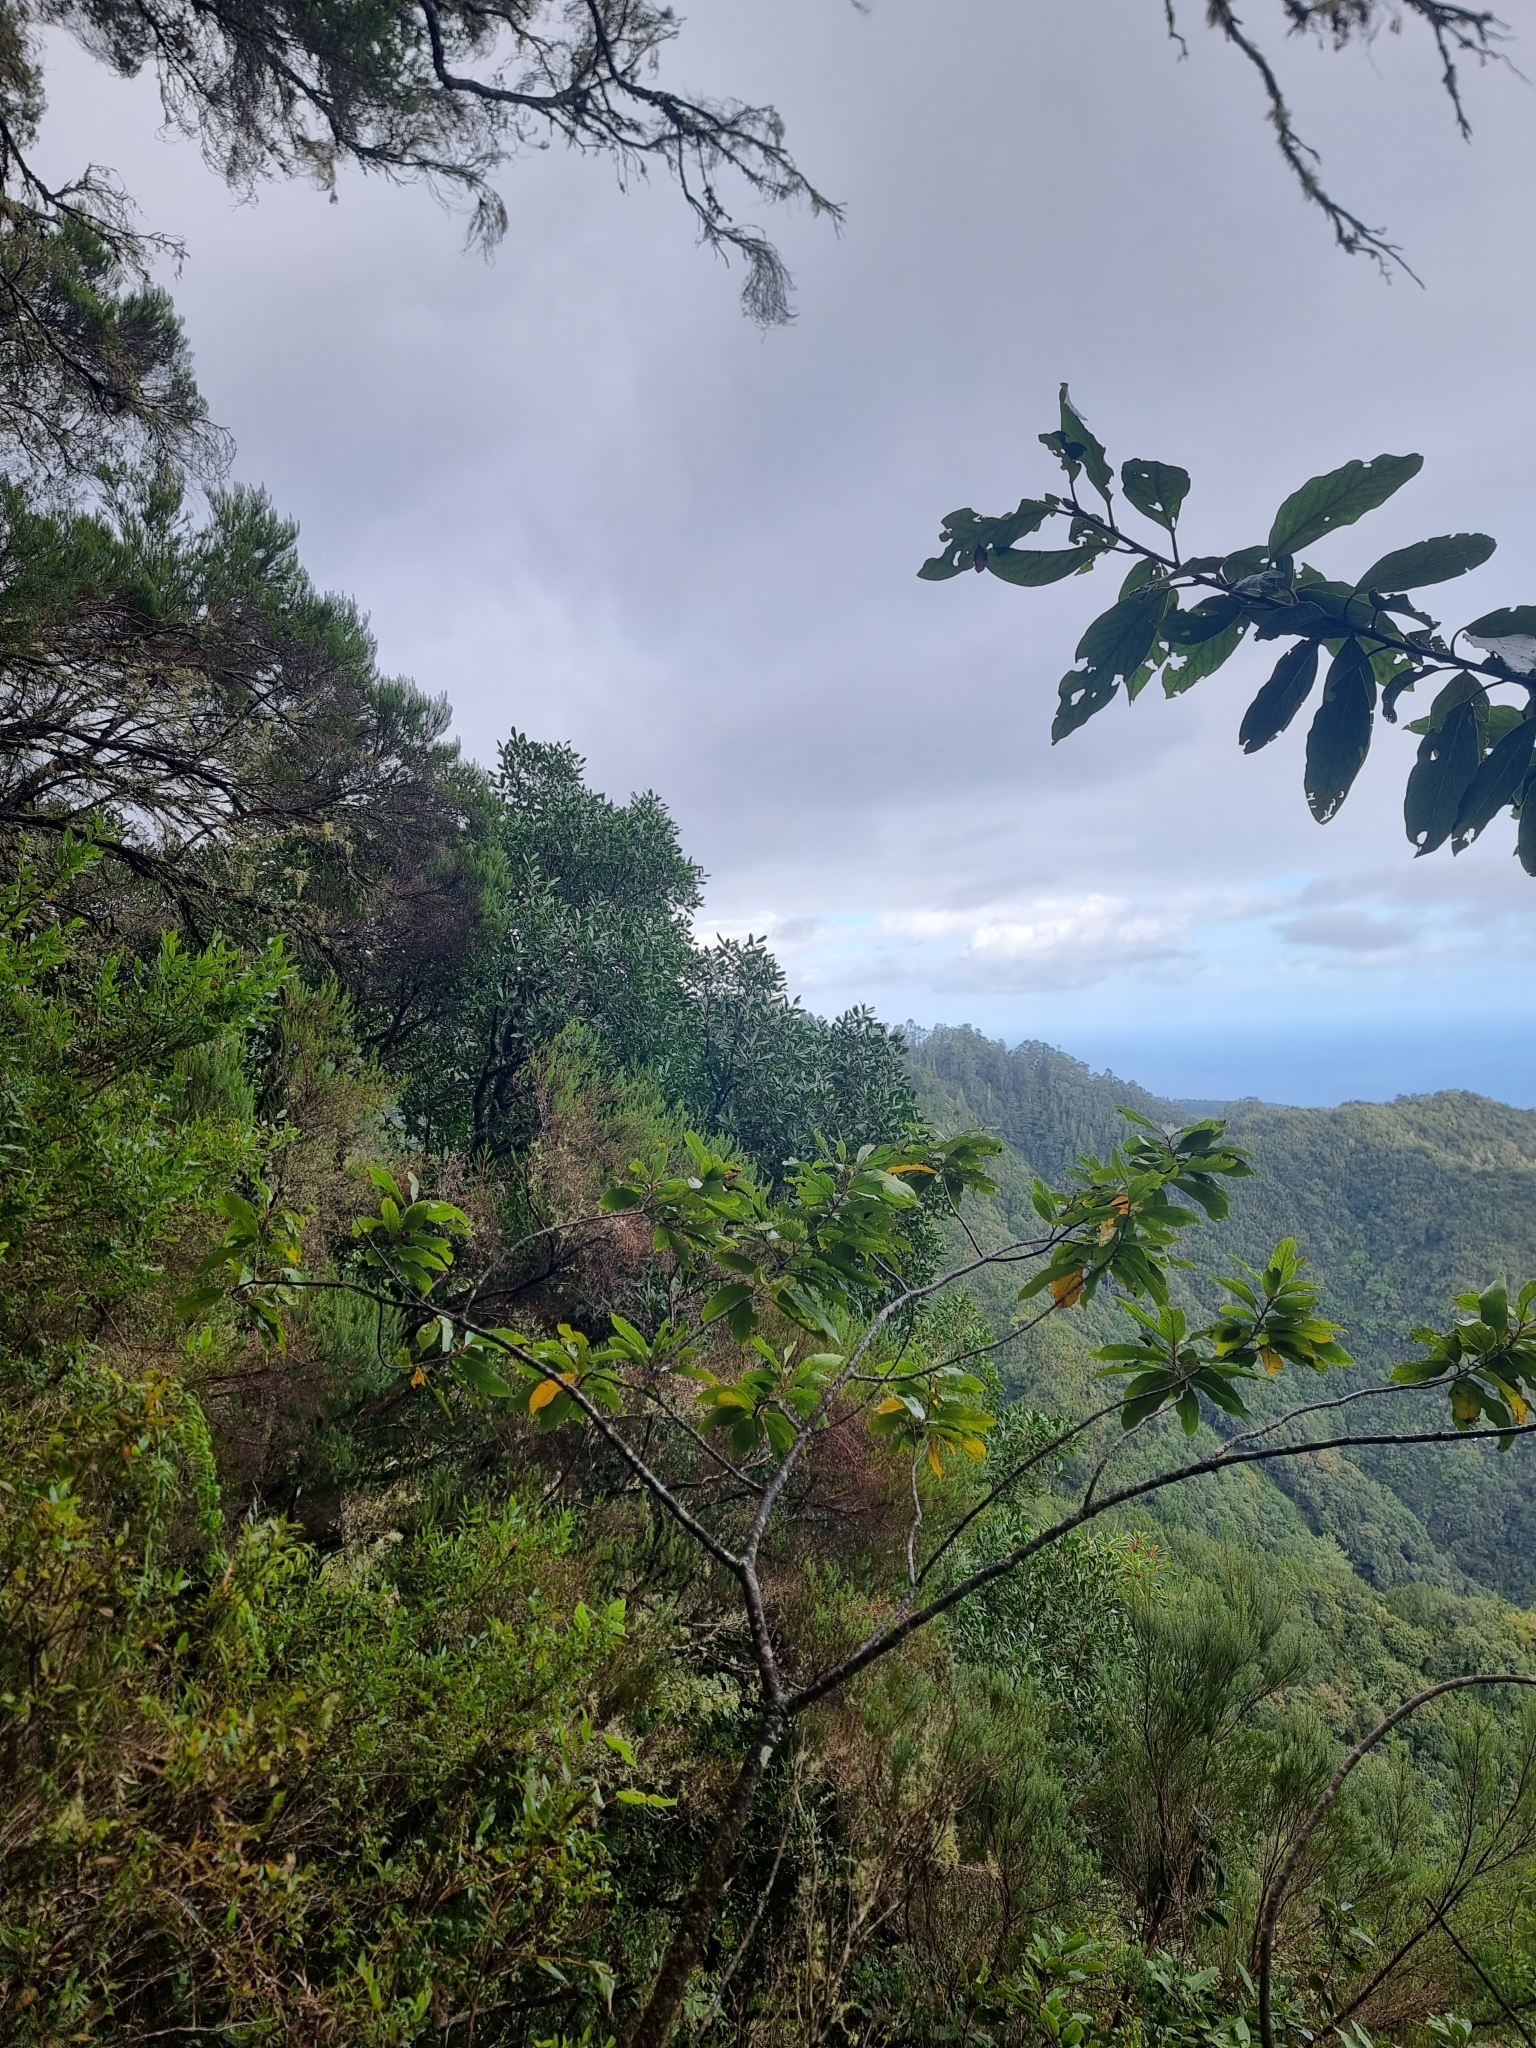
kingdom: Plantae
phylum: Tracheophyta
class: Magnoliopsida
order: Lamiales
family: Oleaceae
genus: Picconia
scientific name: Picconia excelsa
